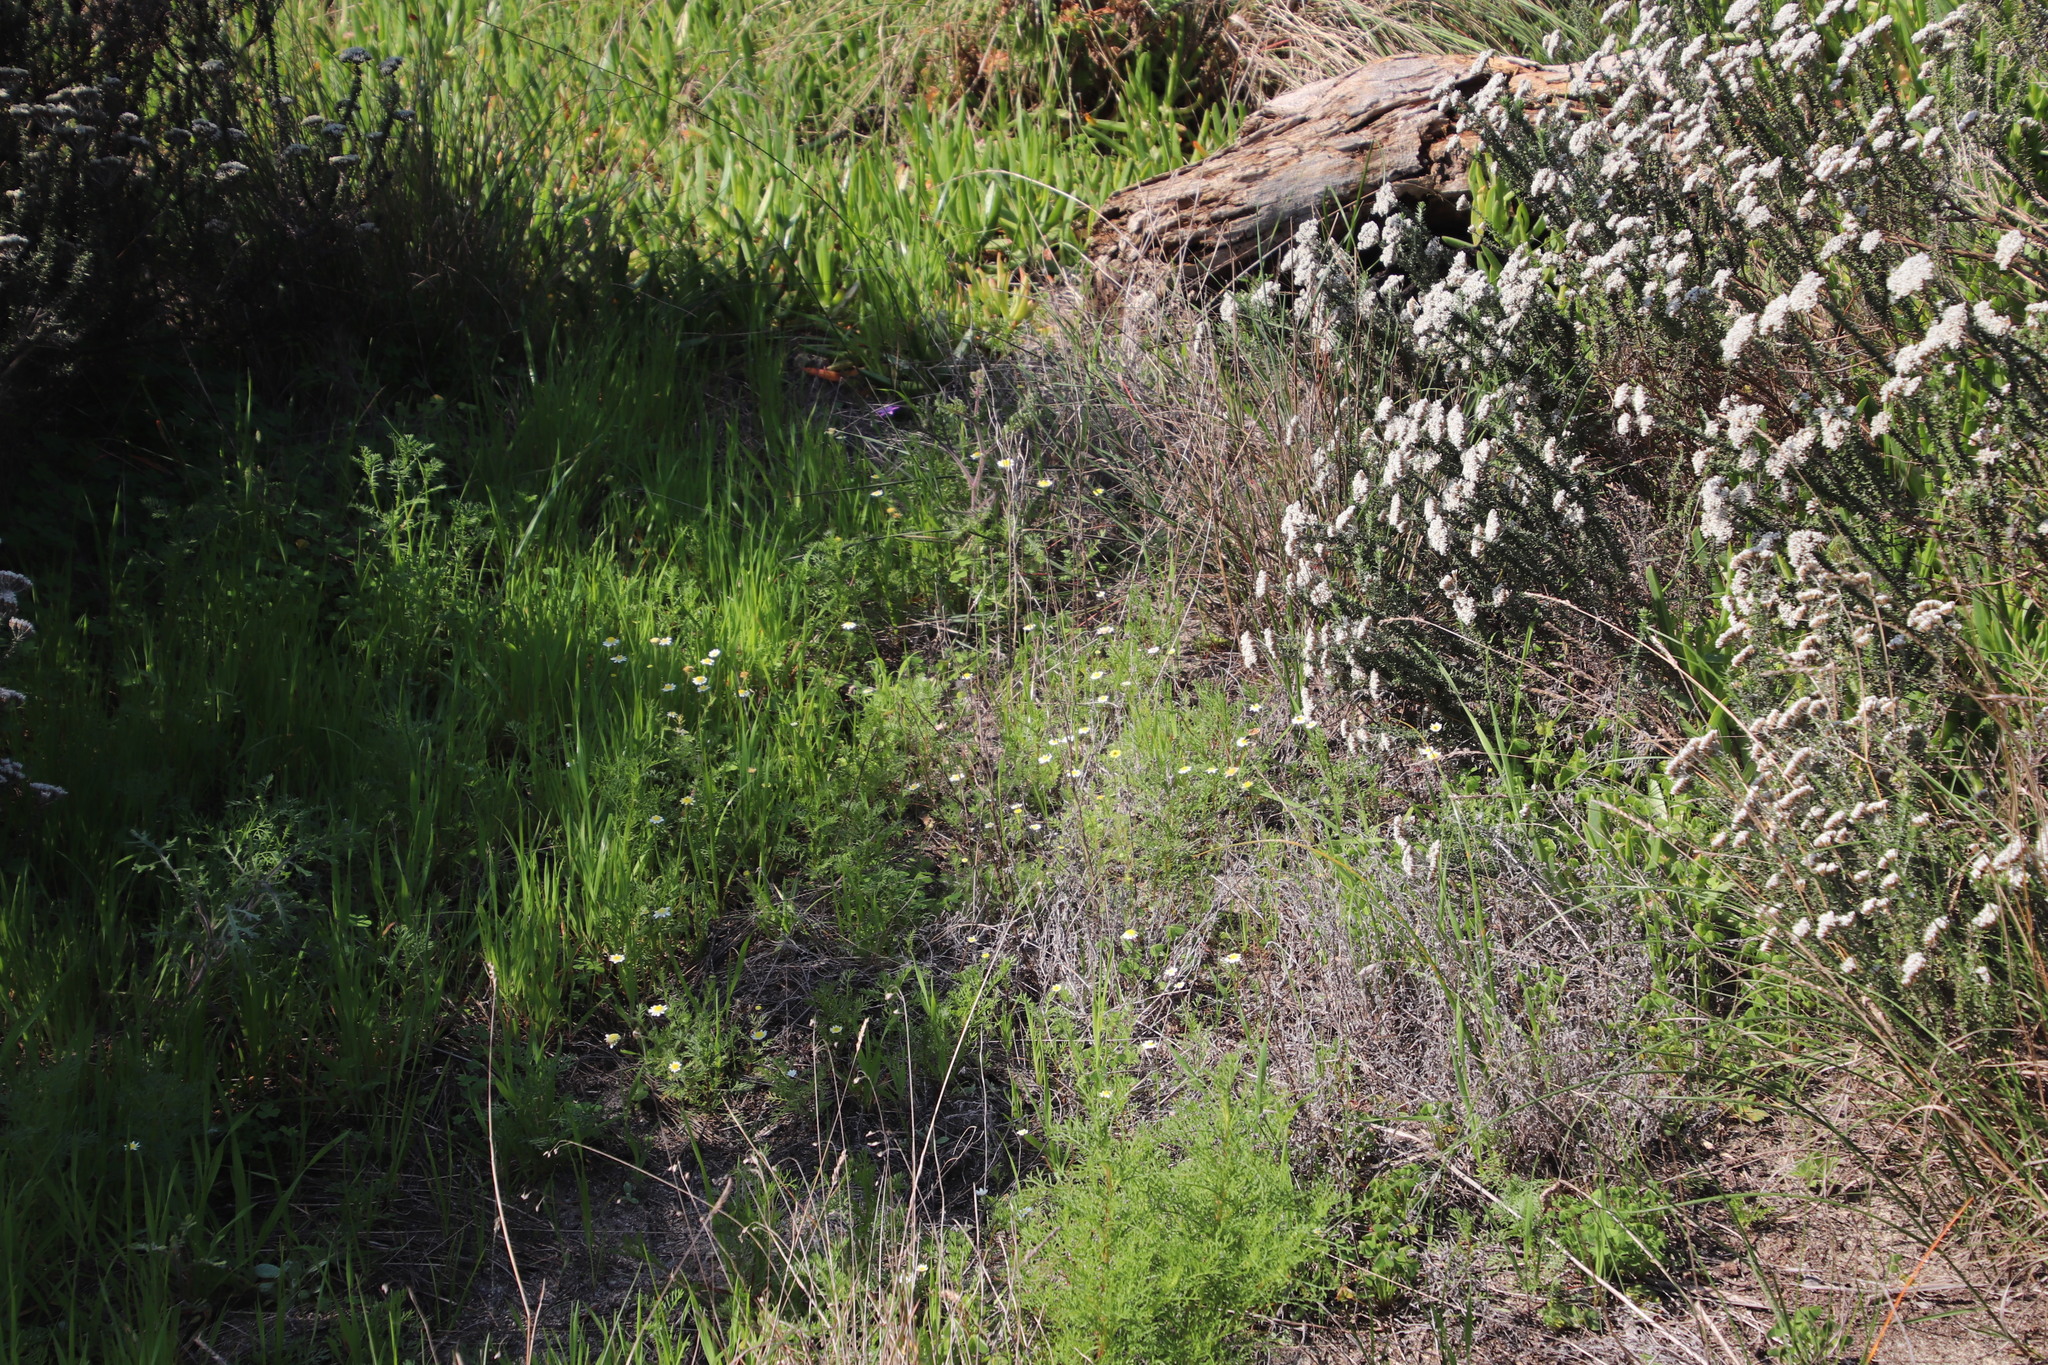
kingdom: Plantae
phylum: Tracheophyta
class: Magnoliopsida
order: Asterales
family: Asteraceae
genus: Cotula
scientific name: Cotula turbinata
